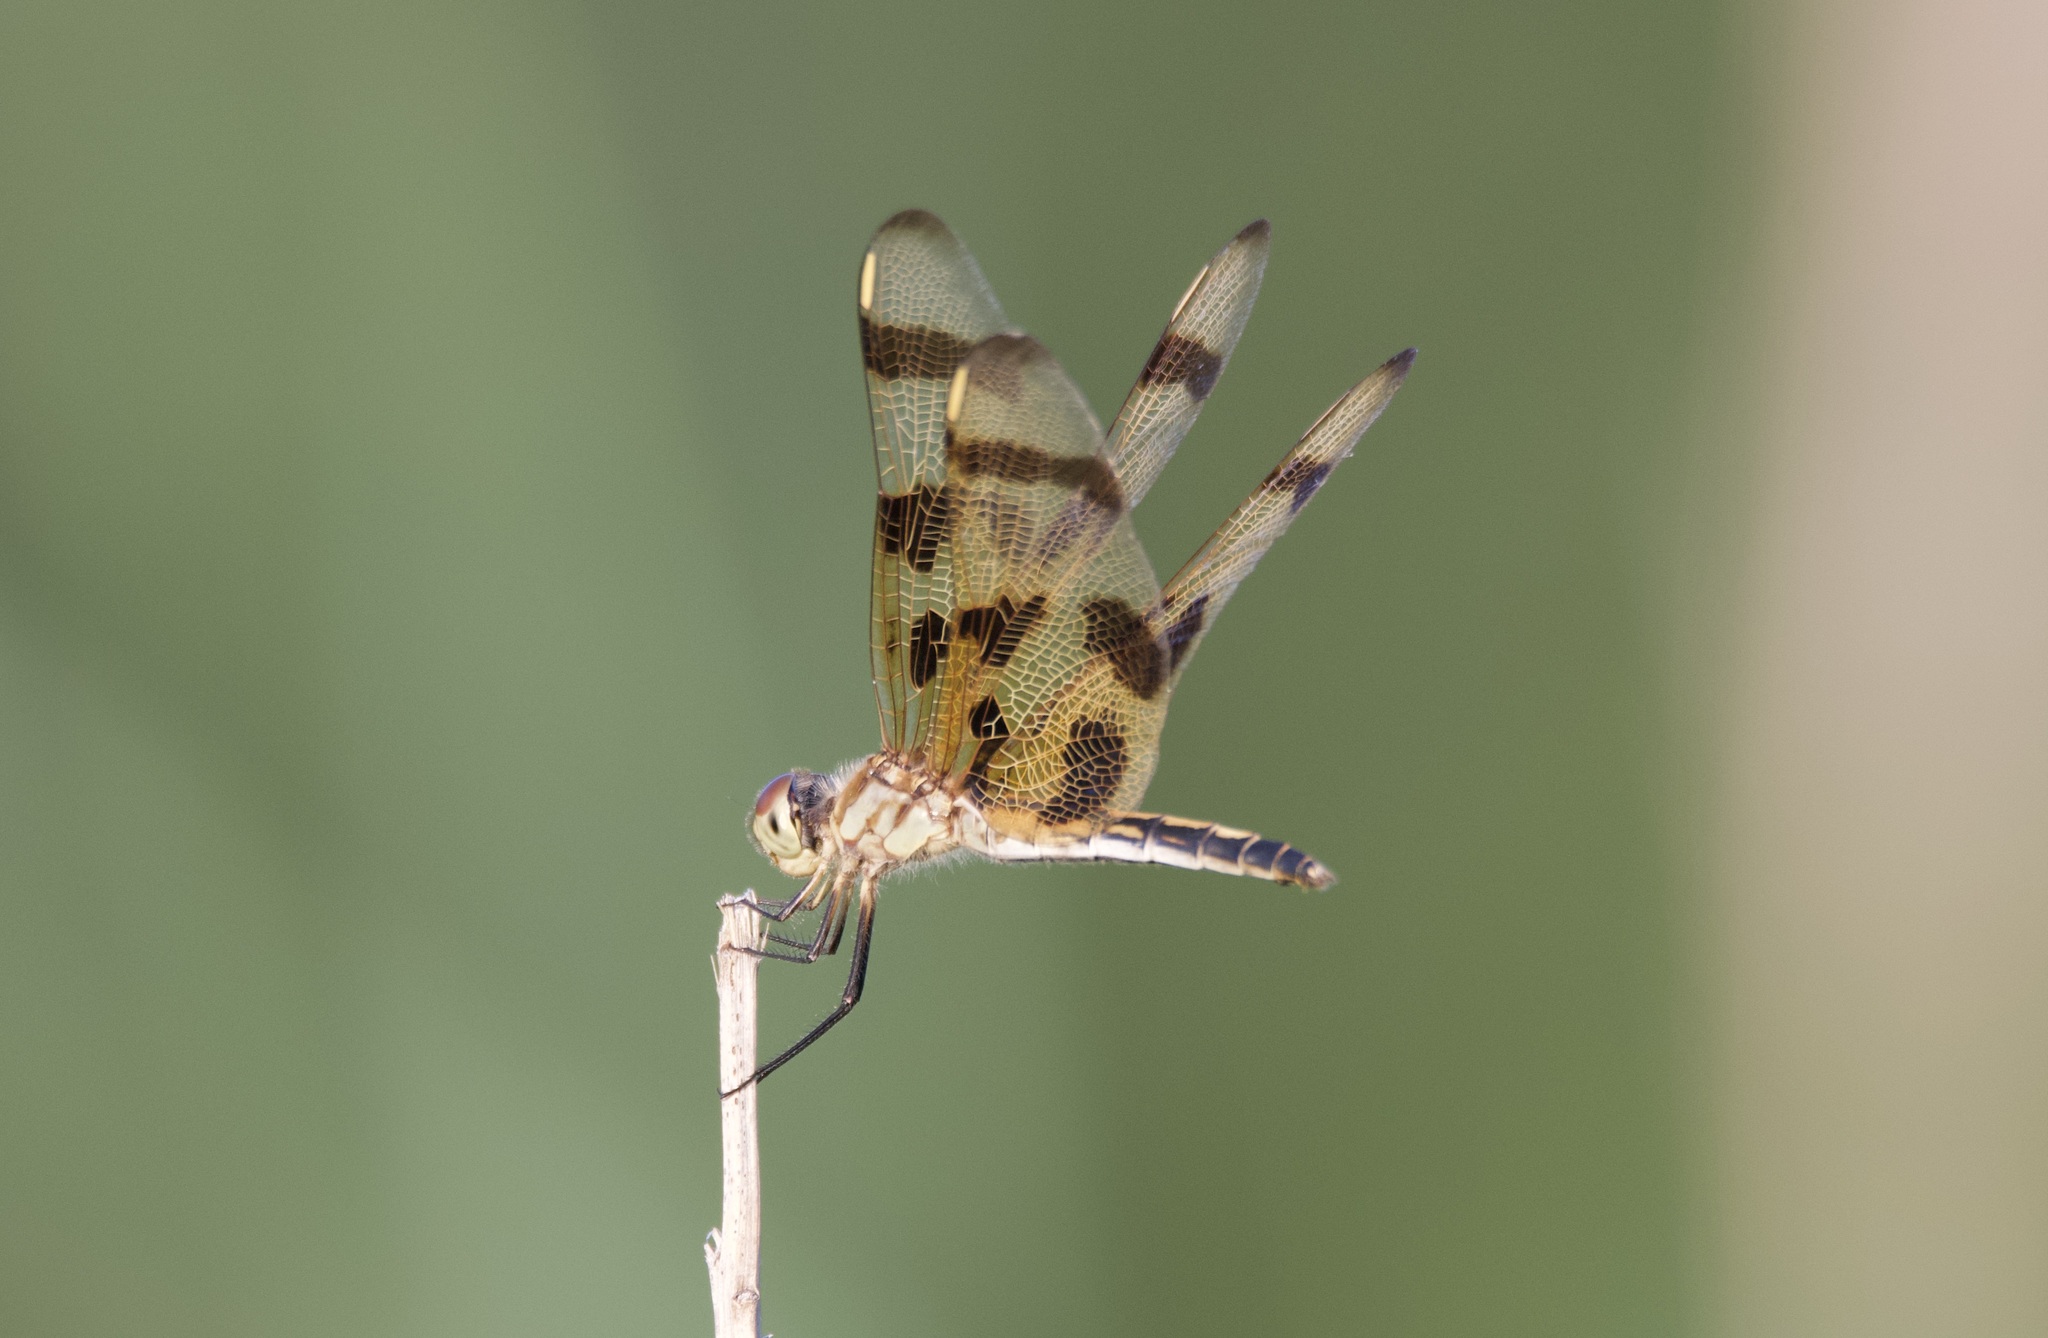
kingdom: Animalia
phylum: Arthropoda
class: Insecta
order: Odonata
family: Libellulidae
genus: Celithemis
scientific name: Celithemis eponina
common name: Halloween pennant
